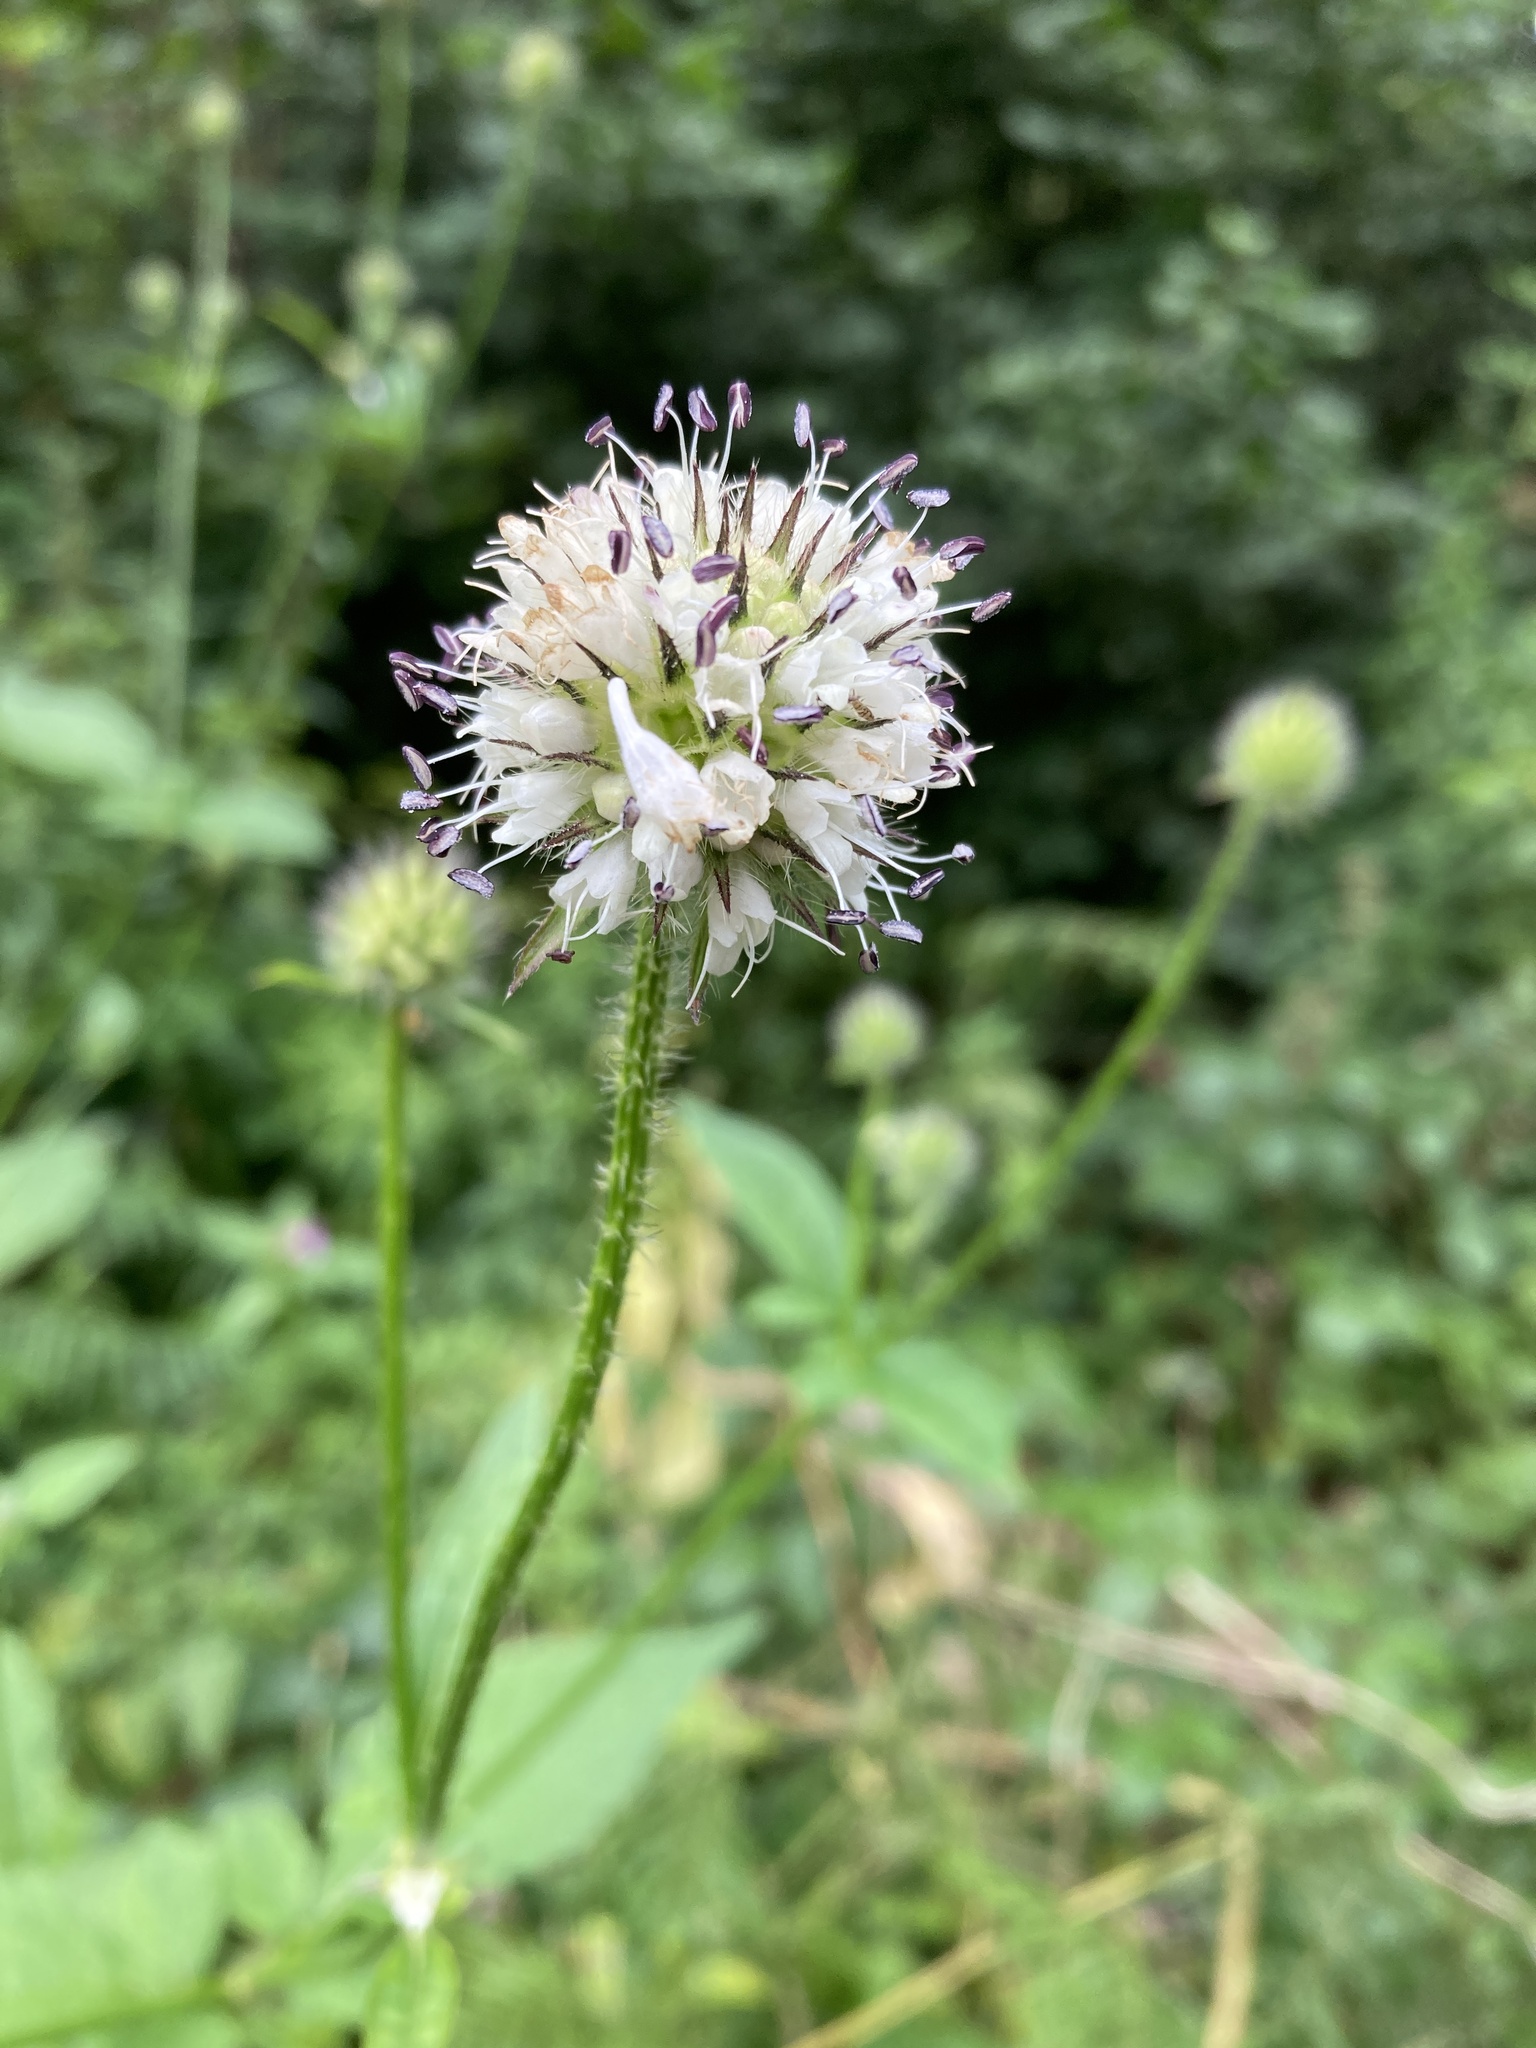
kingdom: Plantae
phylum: Tracheophyta
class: Magnoliopsida
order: Dipsacales
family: Caprifoliaceae
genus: Dipsacus
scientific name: Dipsacus pilosus
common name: Small teasel
